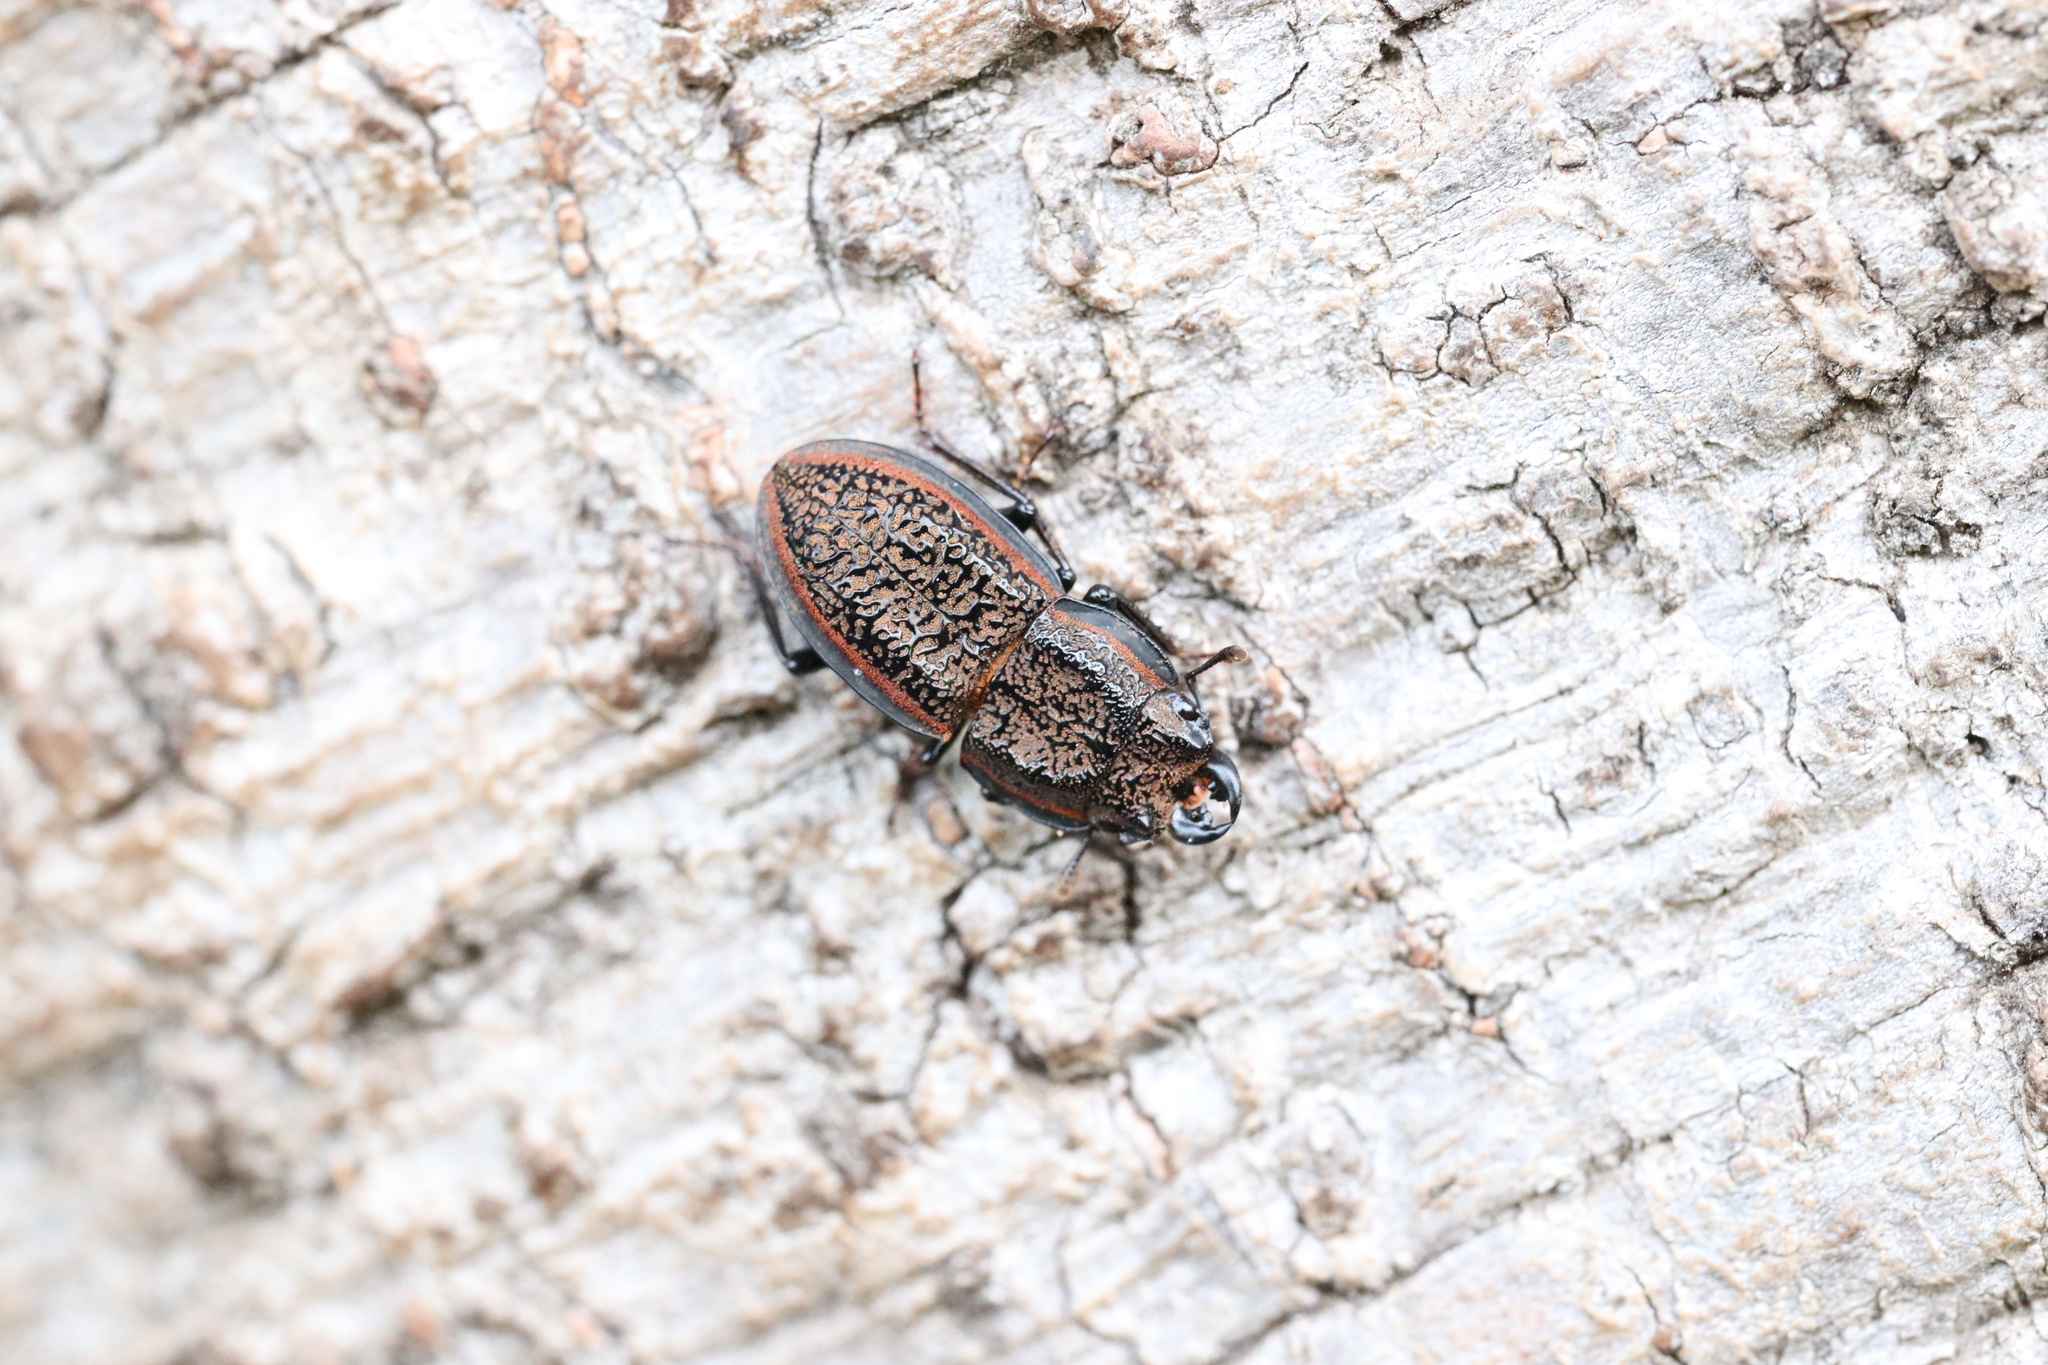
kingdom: Animalia
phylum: Arthropoda
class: Insecta
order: Coleoptera
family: Lucanidae
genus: Erichius
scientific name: Erichius caelatus
